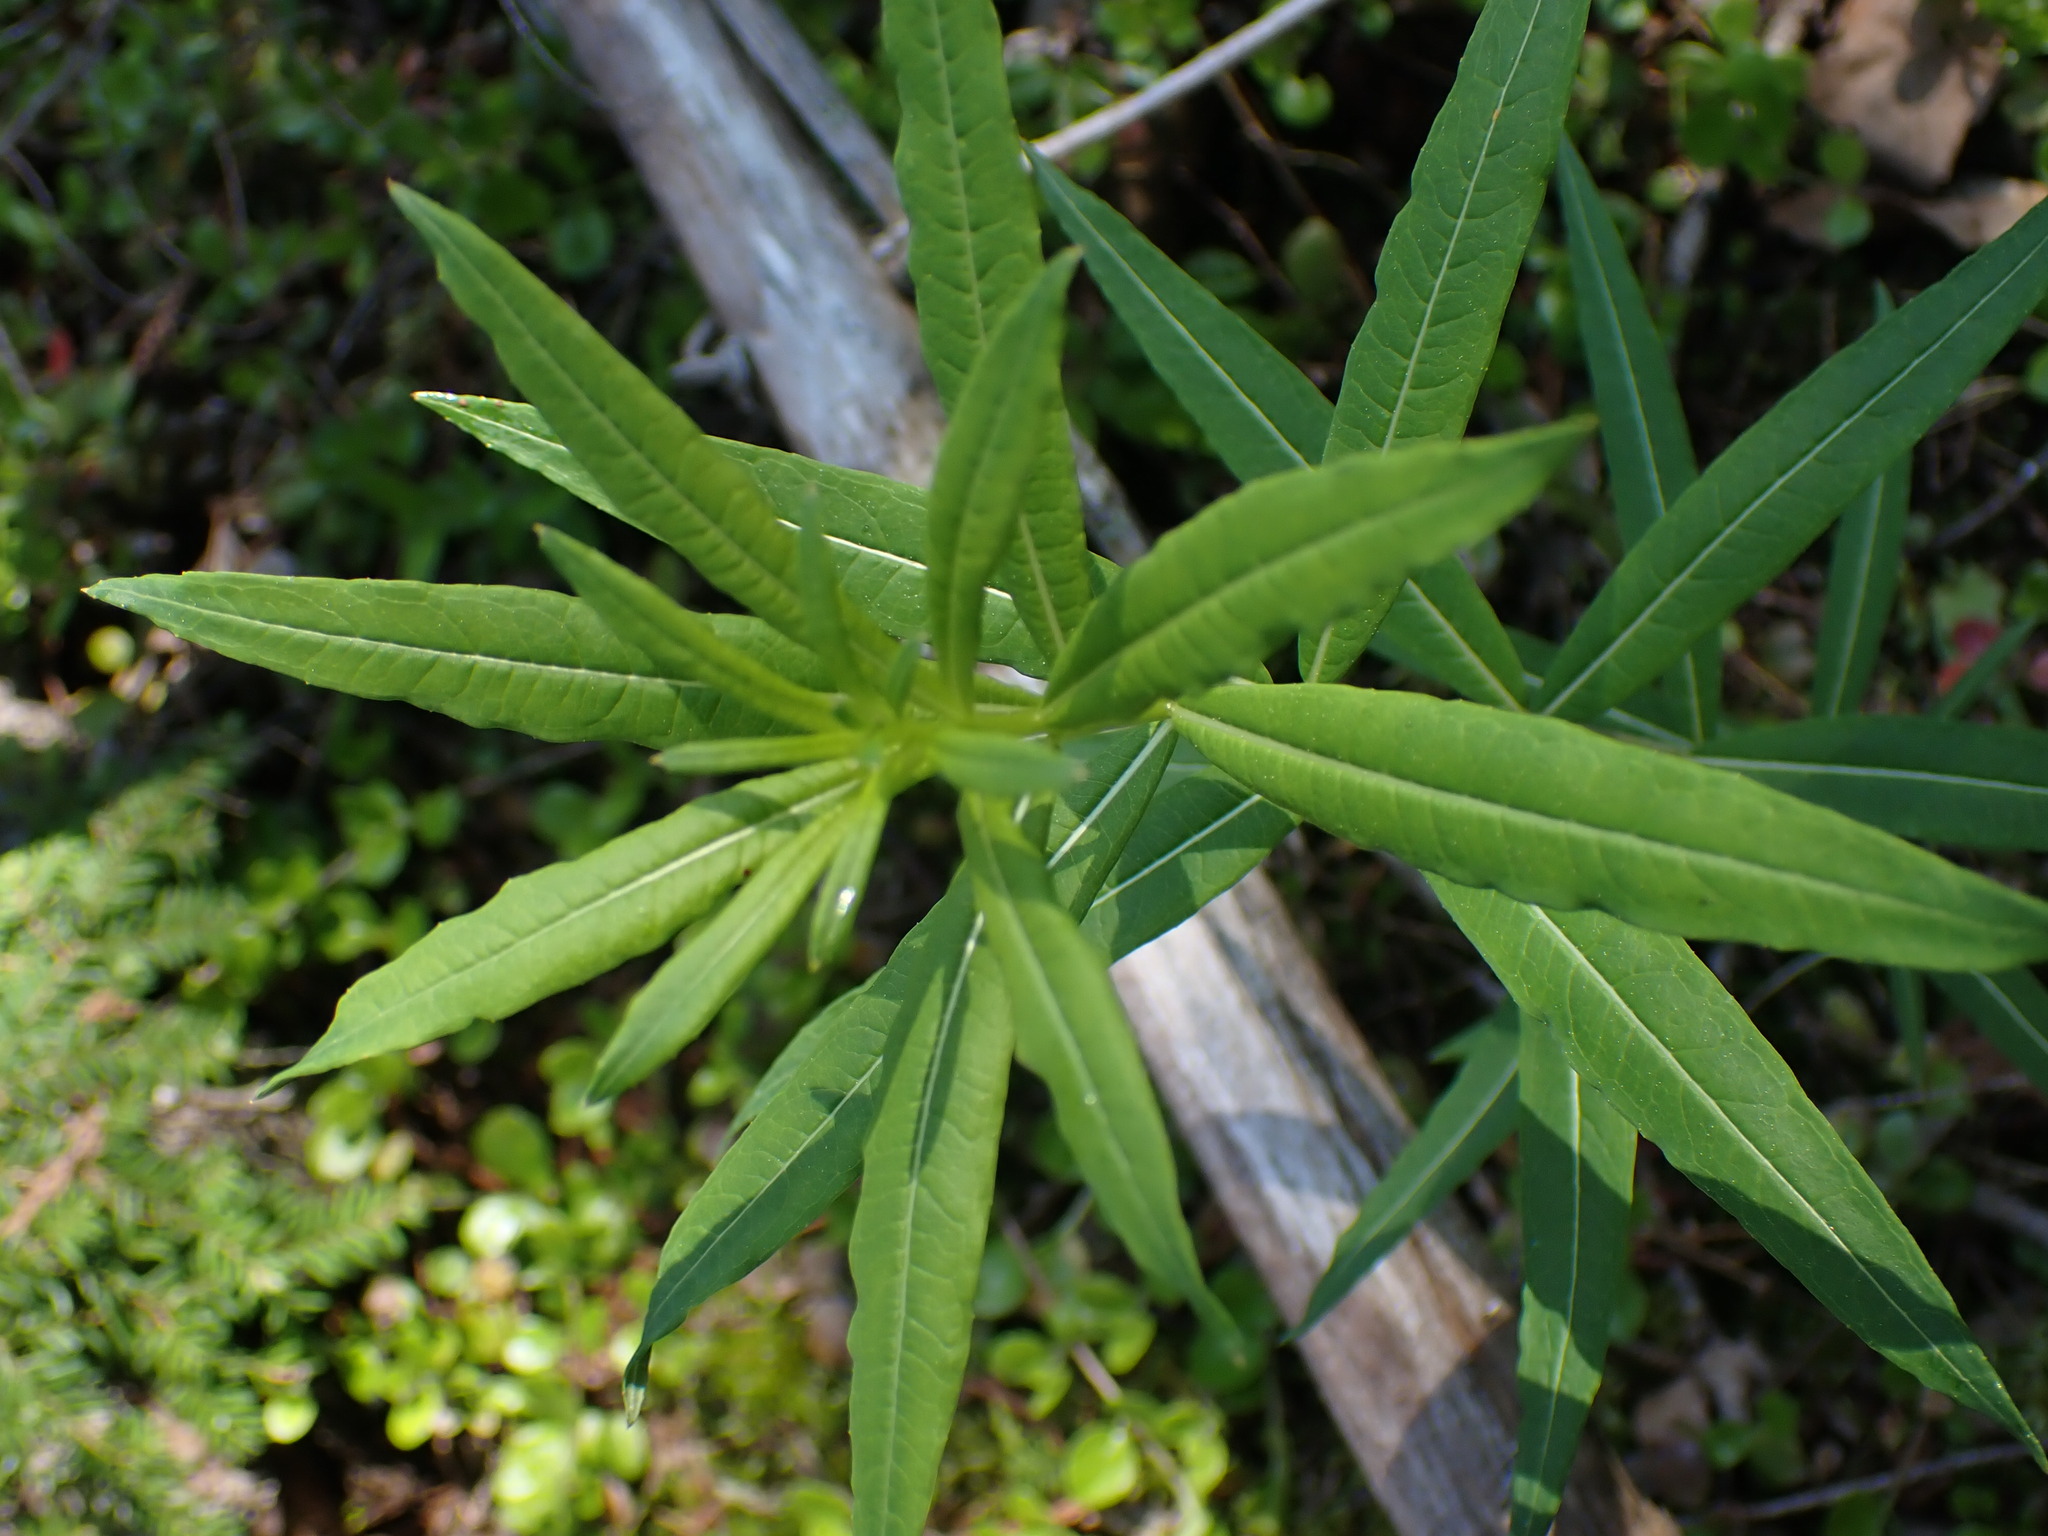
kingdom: Plantae
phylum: Tracheophyta
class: Magnoliopsida
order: Myrtales
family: Onagraceae
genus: Chamaenerion
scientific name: Chamaenerion angustifolium
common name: Fireweed
